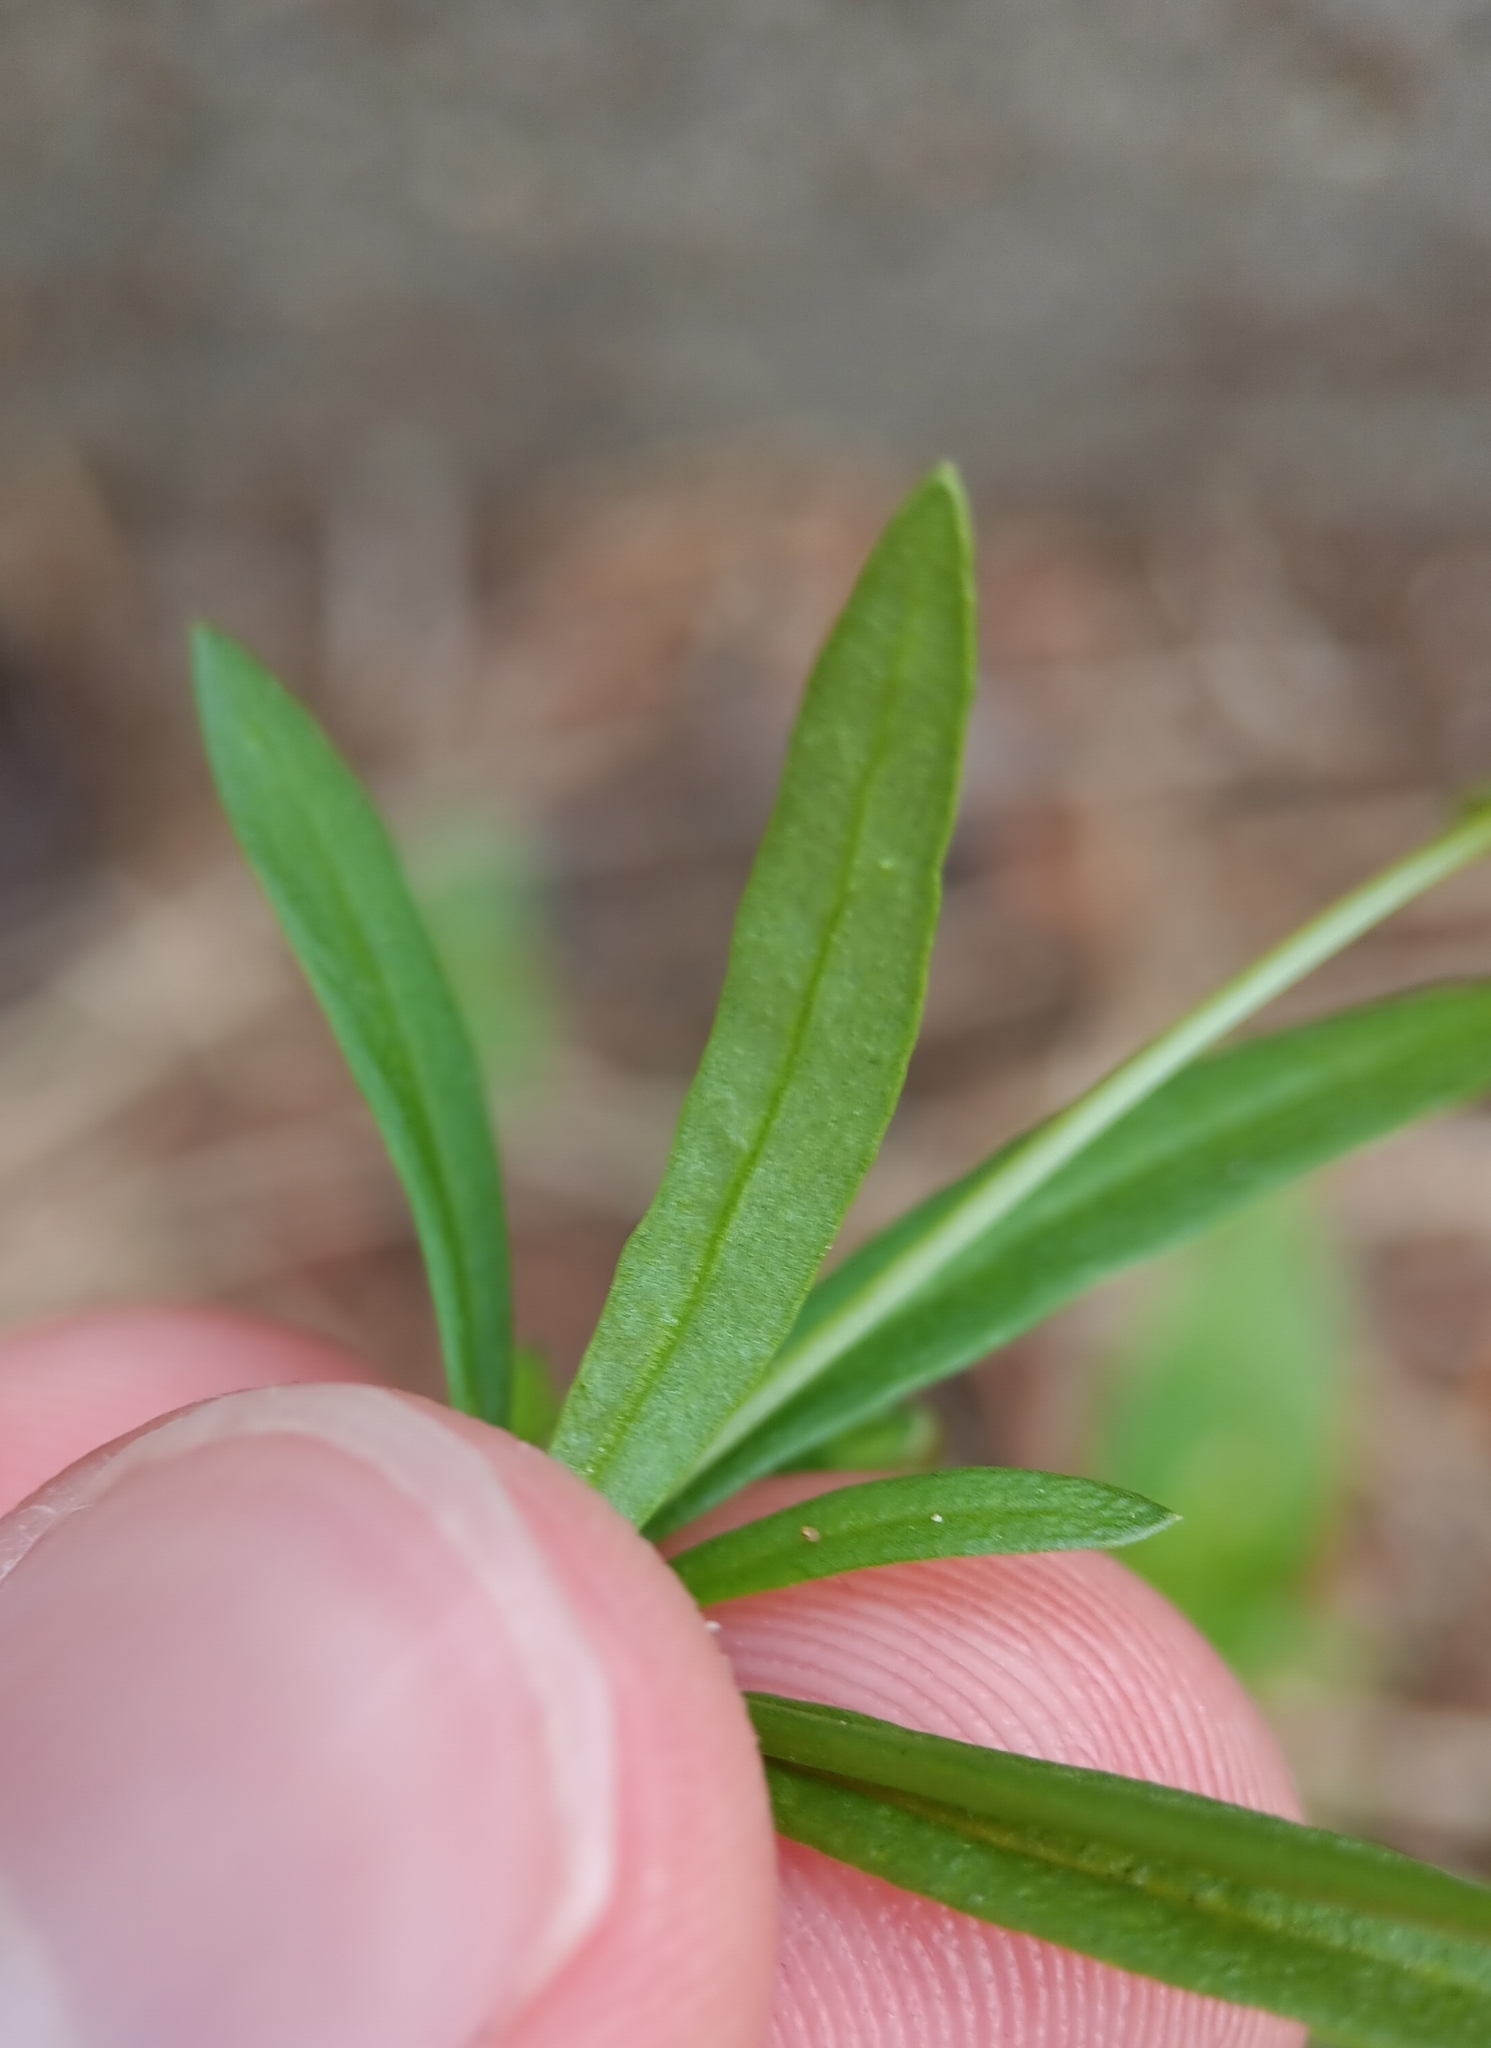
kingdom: Plantae
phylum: Tracheophyta
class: Magnoliopsida
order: Caryophyllales
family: Molluginaceae
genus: Mollugo
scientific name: Mollugo verticillata
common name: Green carpetweed
